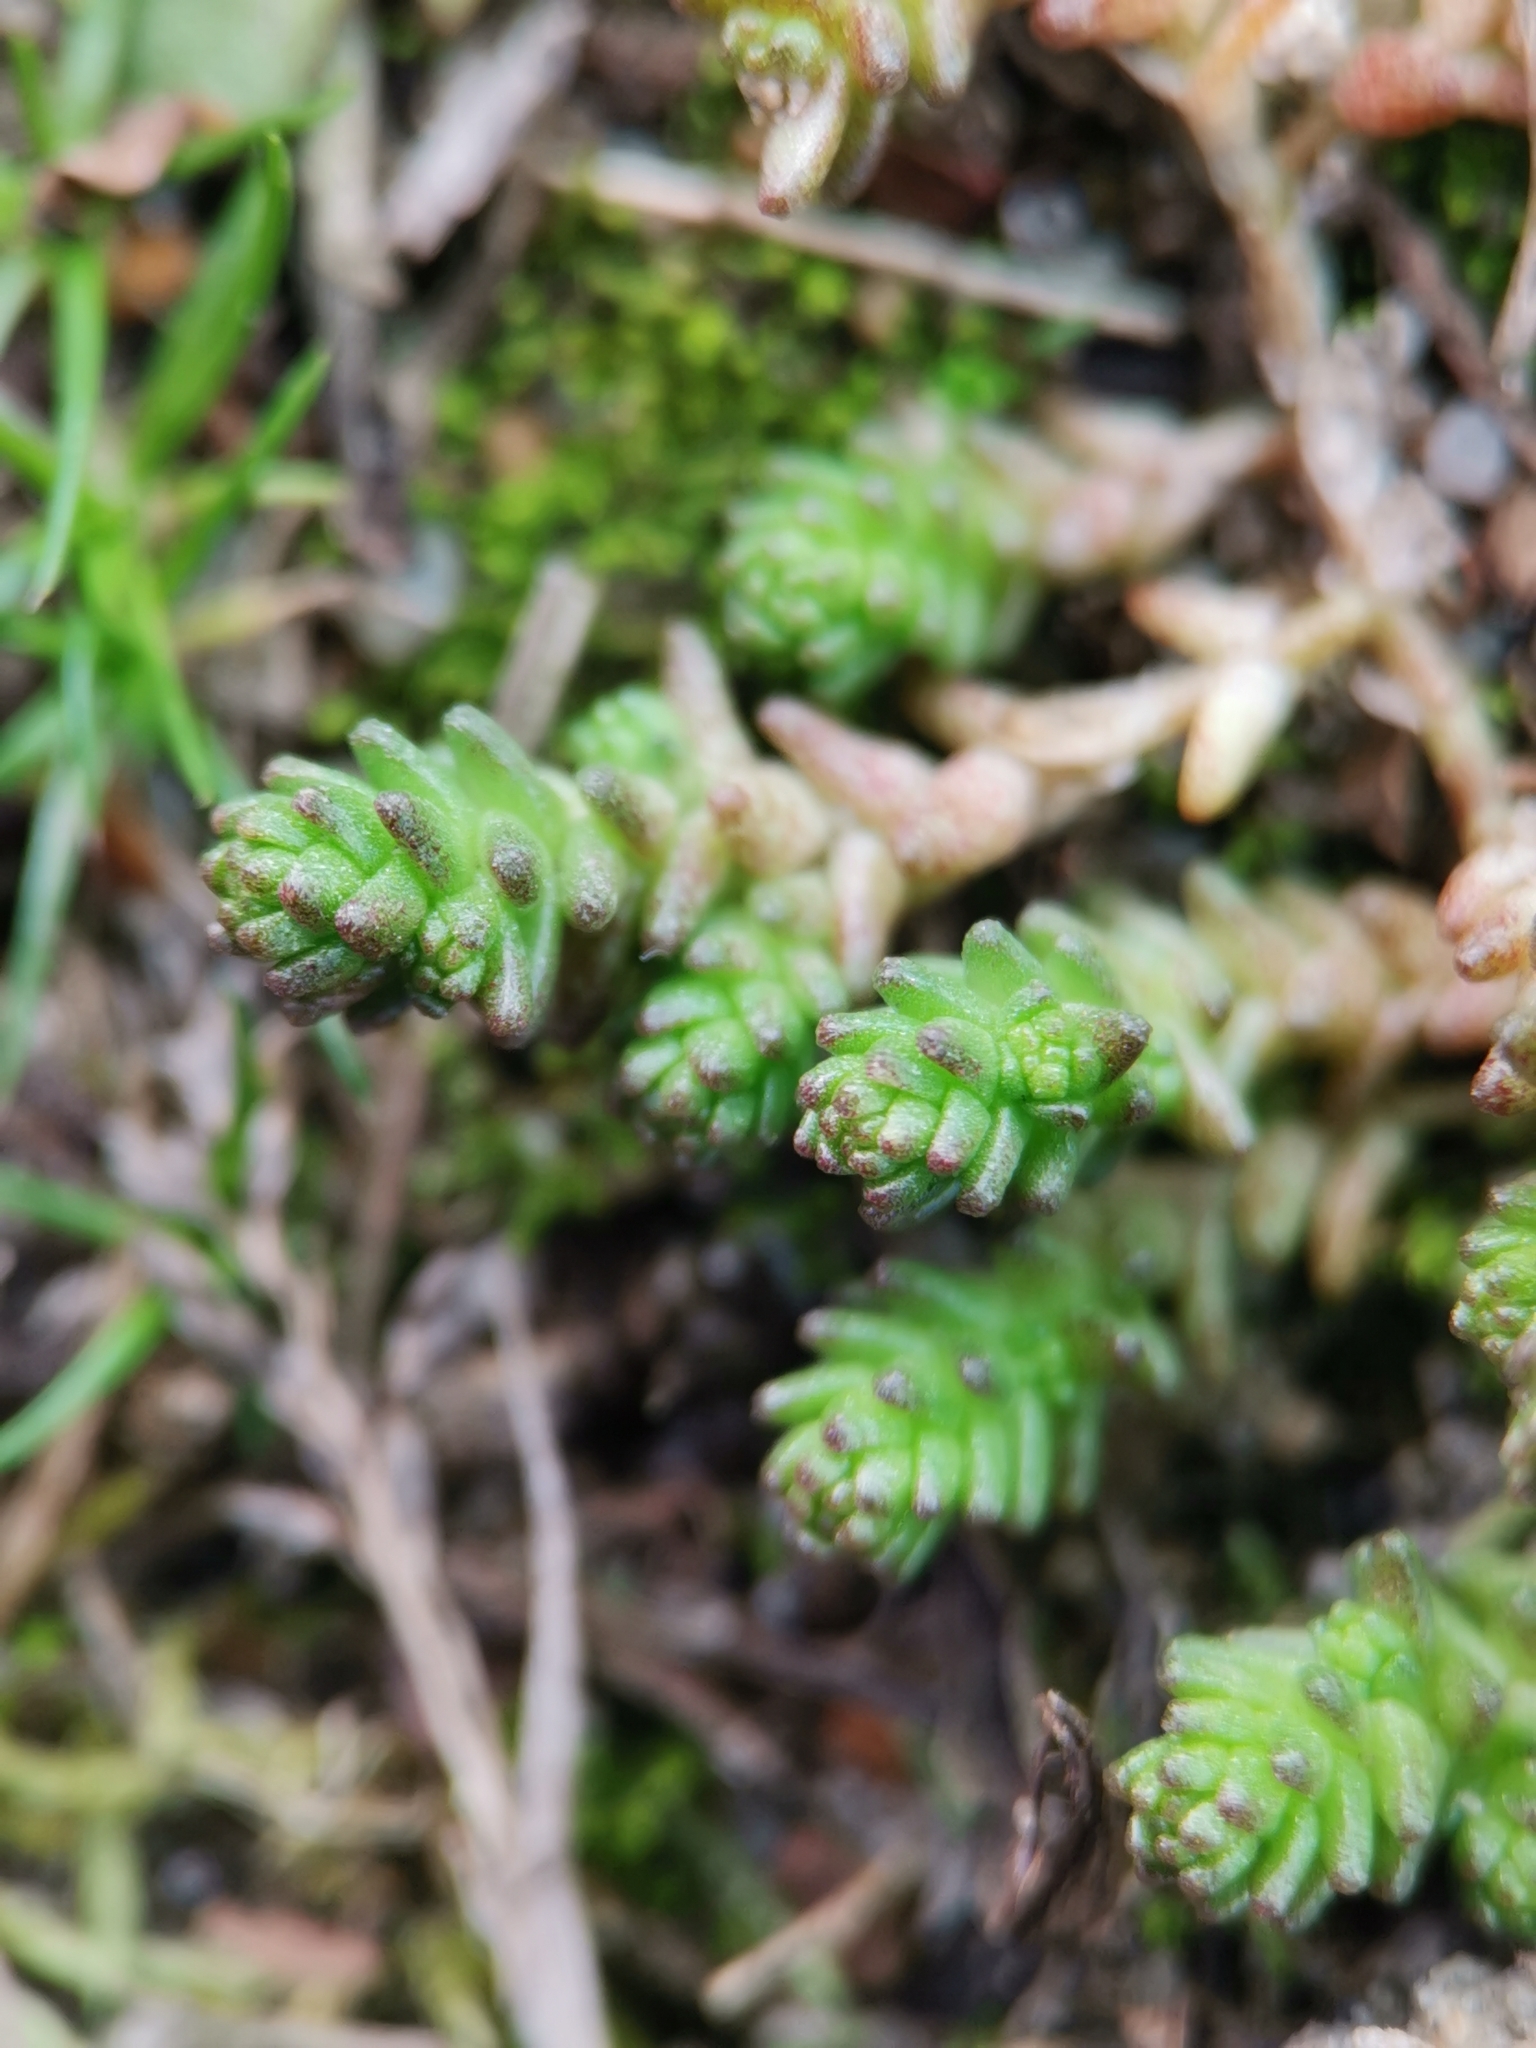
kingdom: Plantae
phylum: Tracheophyta
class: Magnoliopsida
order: Saxifragales
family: Crassulaceae
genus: Sedum
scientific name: Sedum acre
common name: Biting stonecrop
